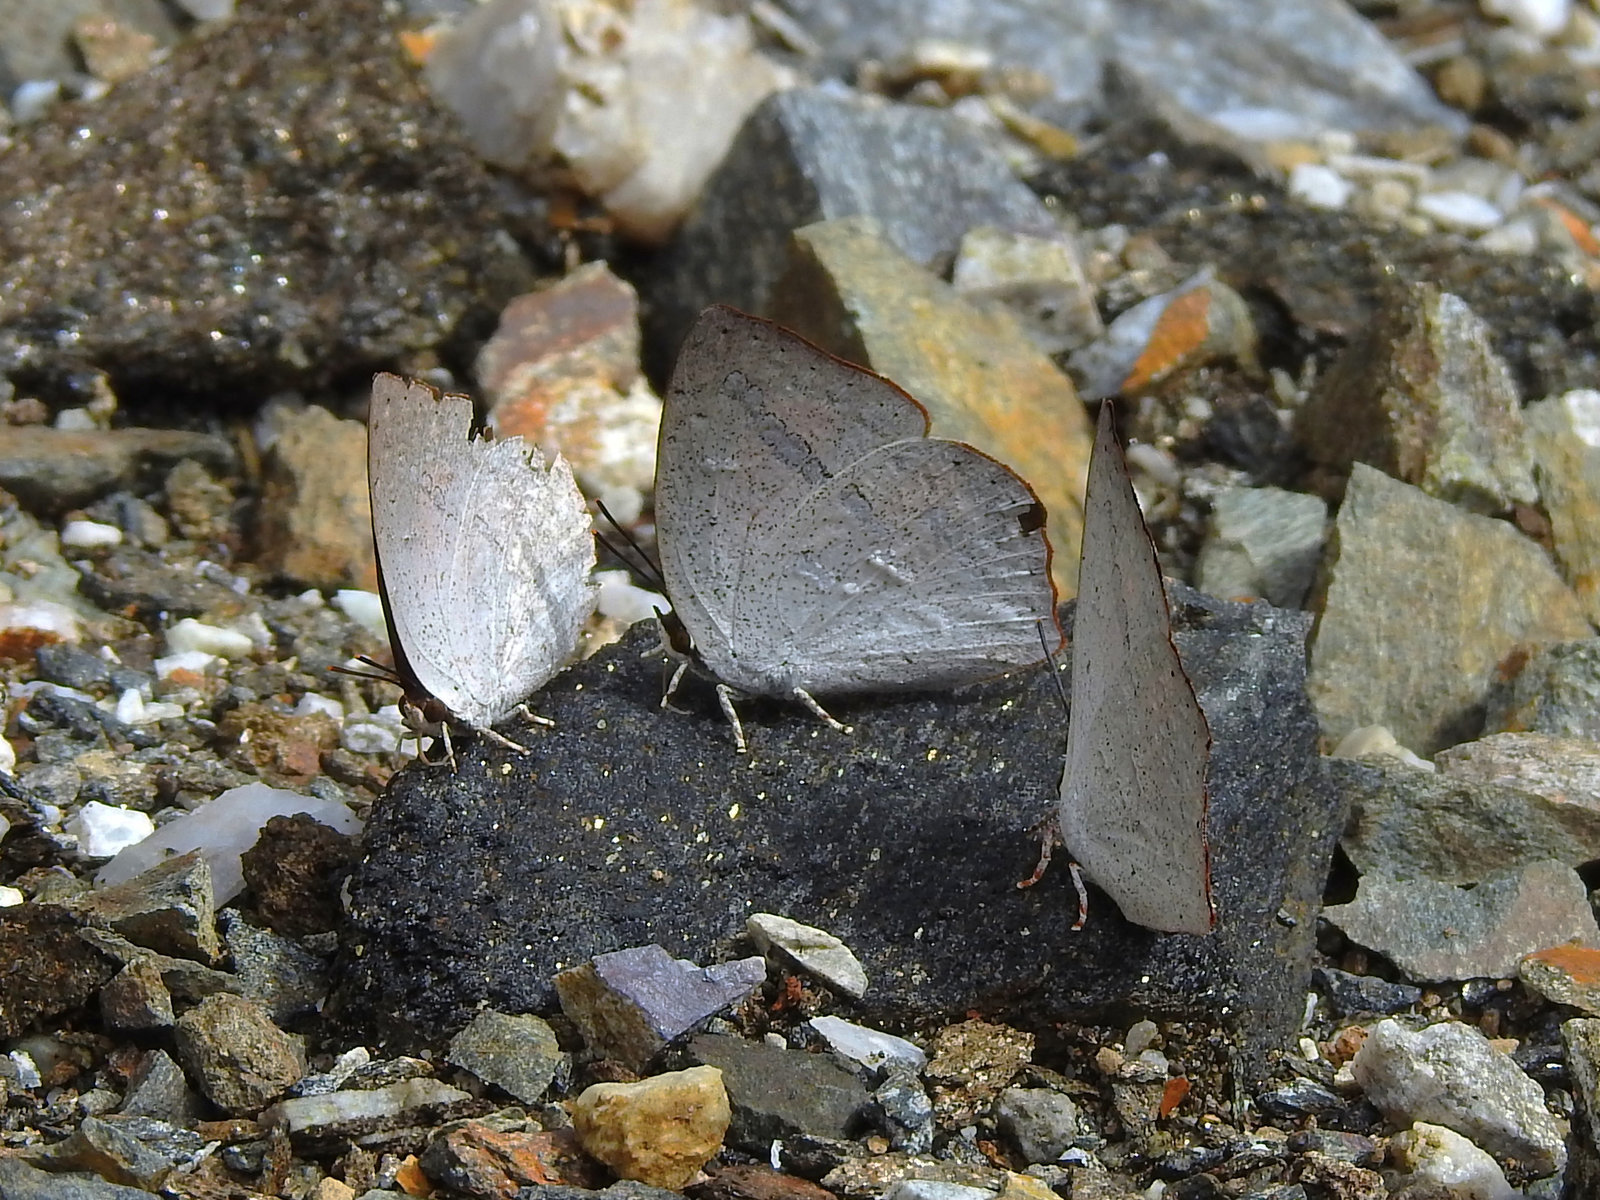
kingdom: Animalia
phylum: Arthropoda
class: Insecta
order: Lepidoptera
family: Lycaenidae
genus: Curetis
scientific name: Curetis acuta
